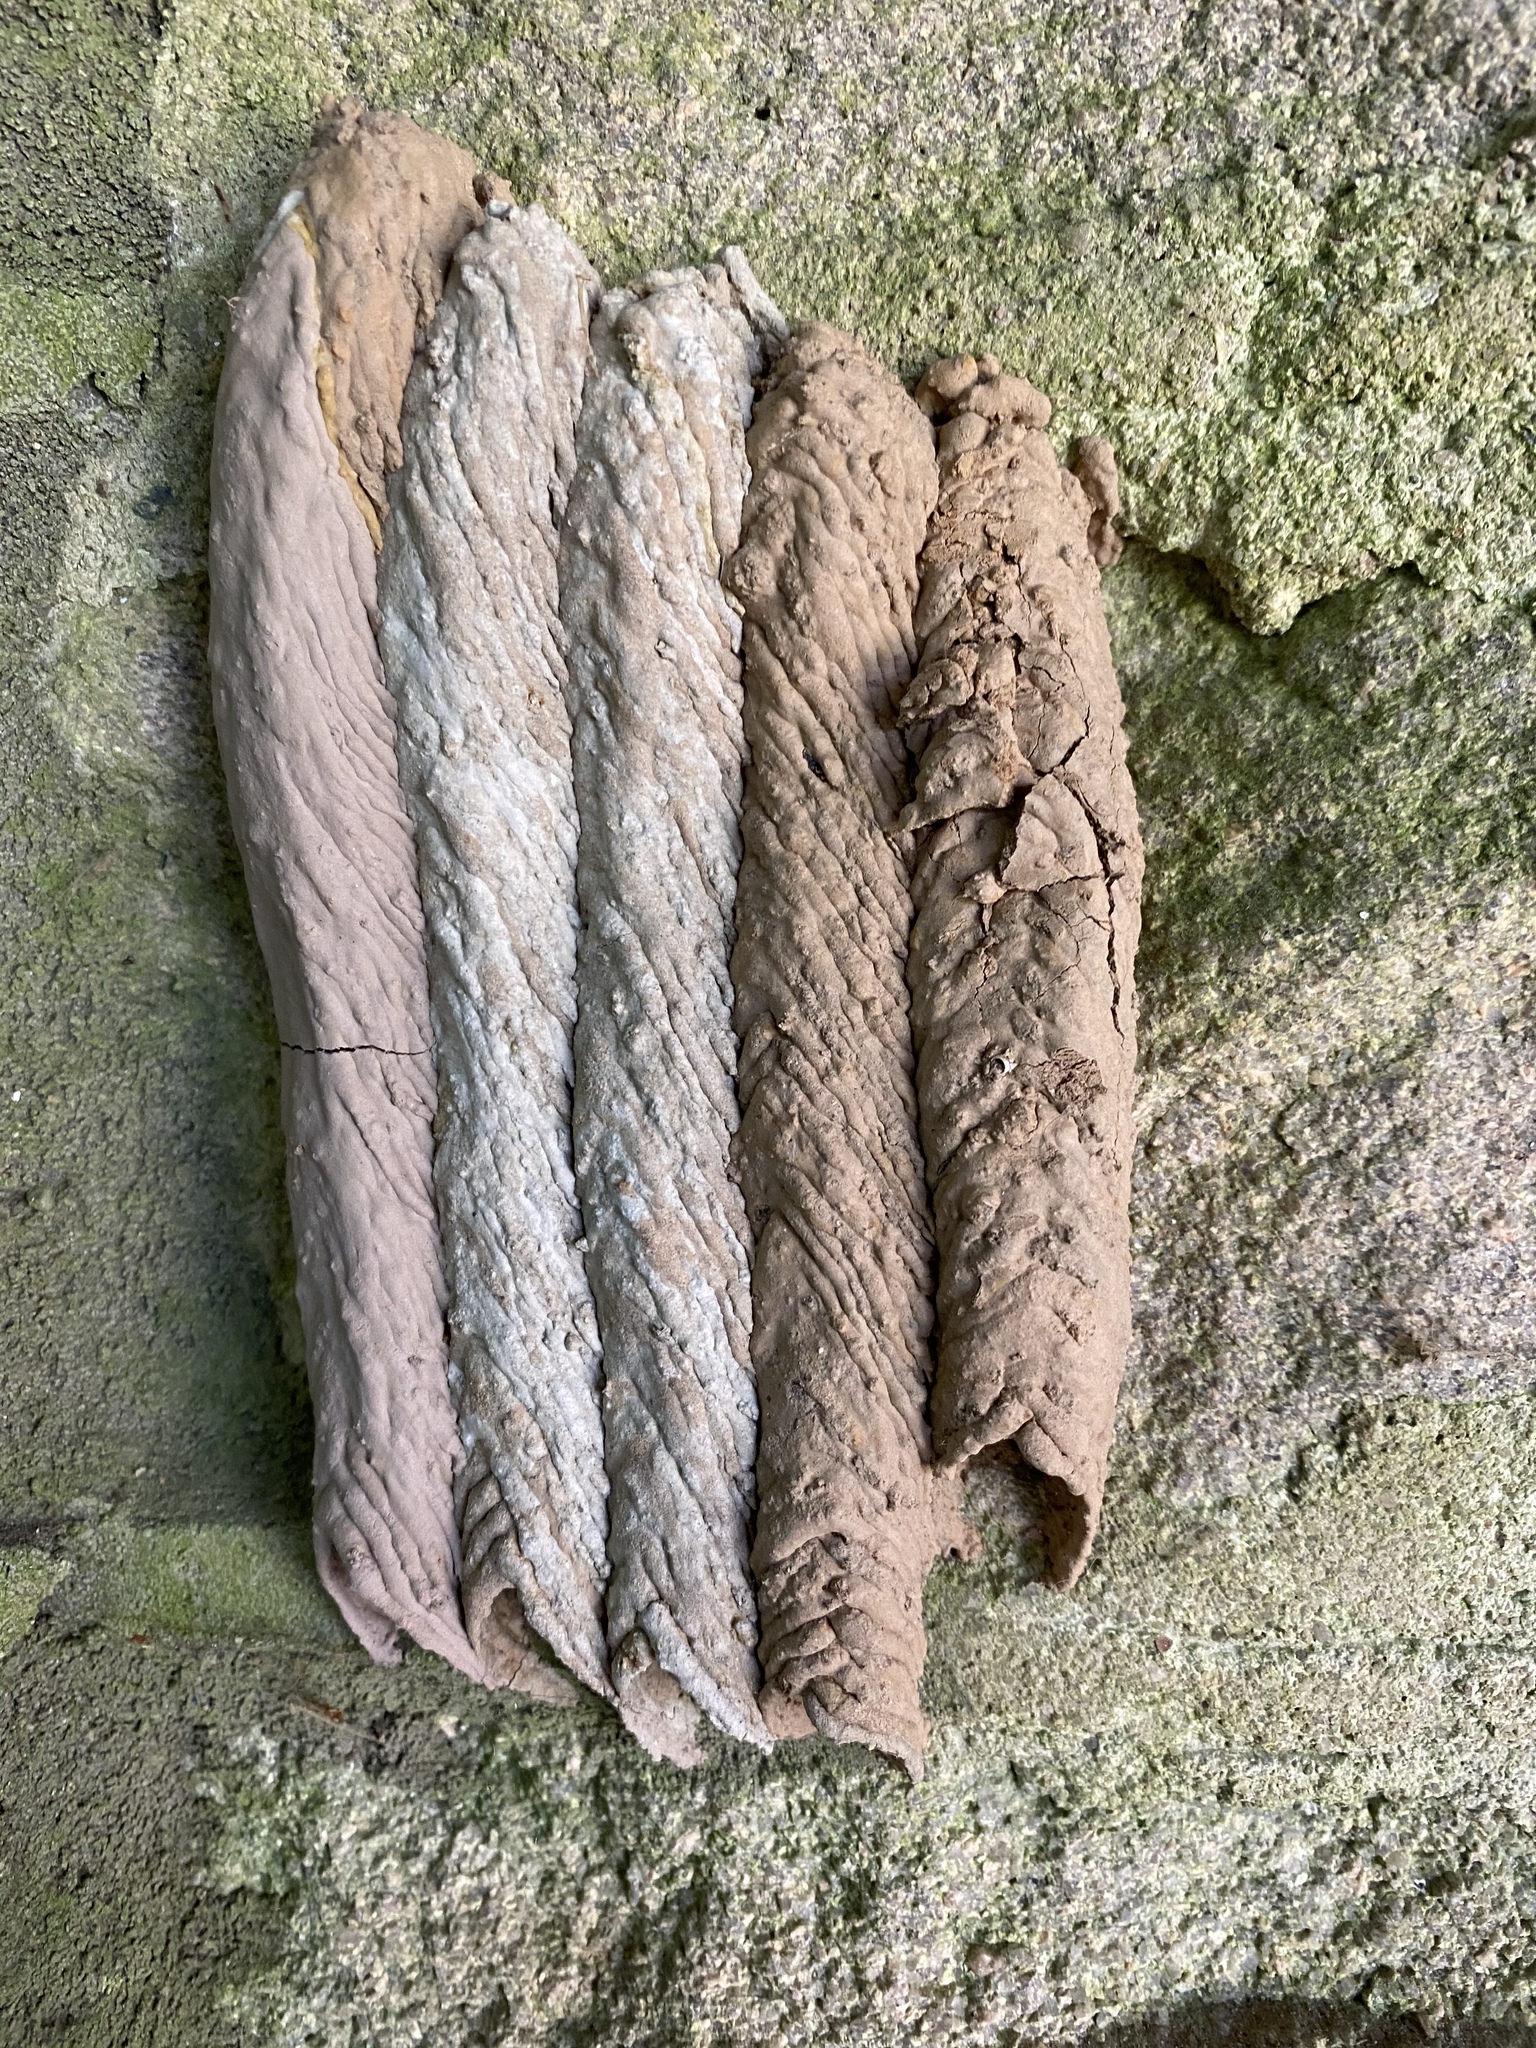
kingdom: Animalia
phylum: Arthropoda
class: Insecta
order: Hymenoptera
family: Crabronidae
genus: Trypoxylon
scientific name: Trypoxylon politum
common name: Organ-pipe mud-dauber wasp
